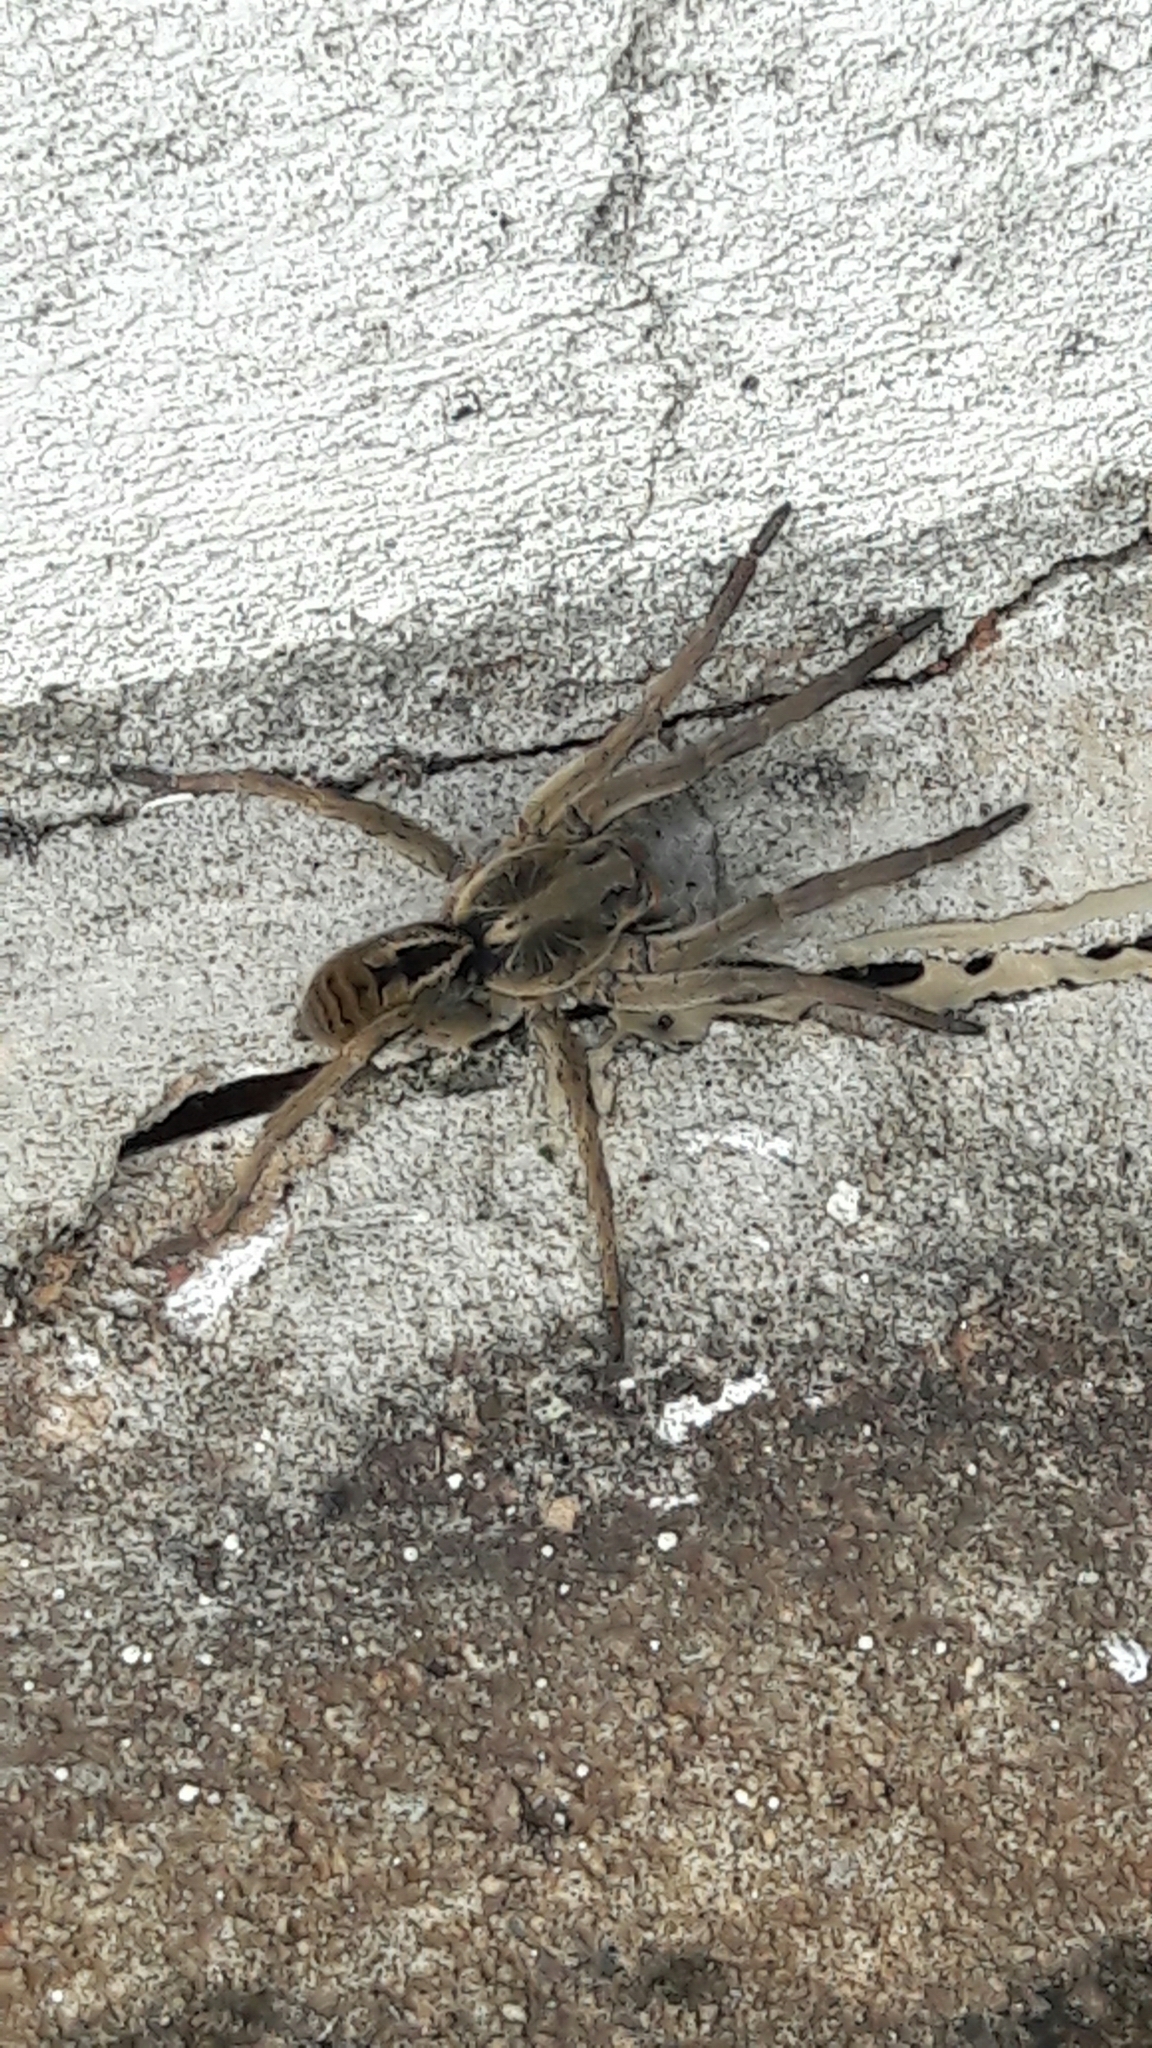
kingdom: Animalia
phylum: Arthropoda
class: Arachnida
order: Araneae
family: Lycosidae
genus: Lycosa
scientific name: Lycosa erythrognatha
